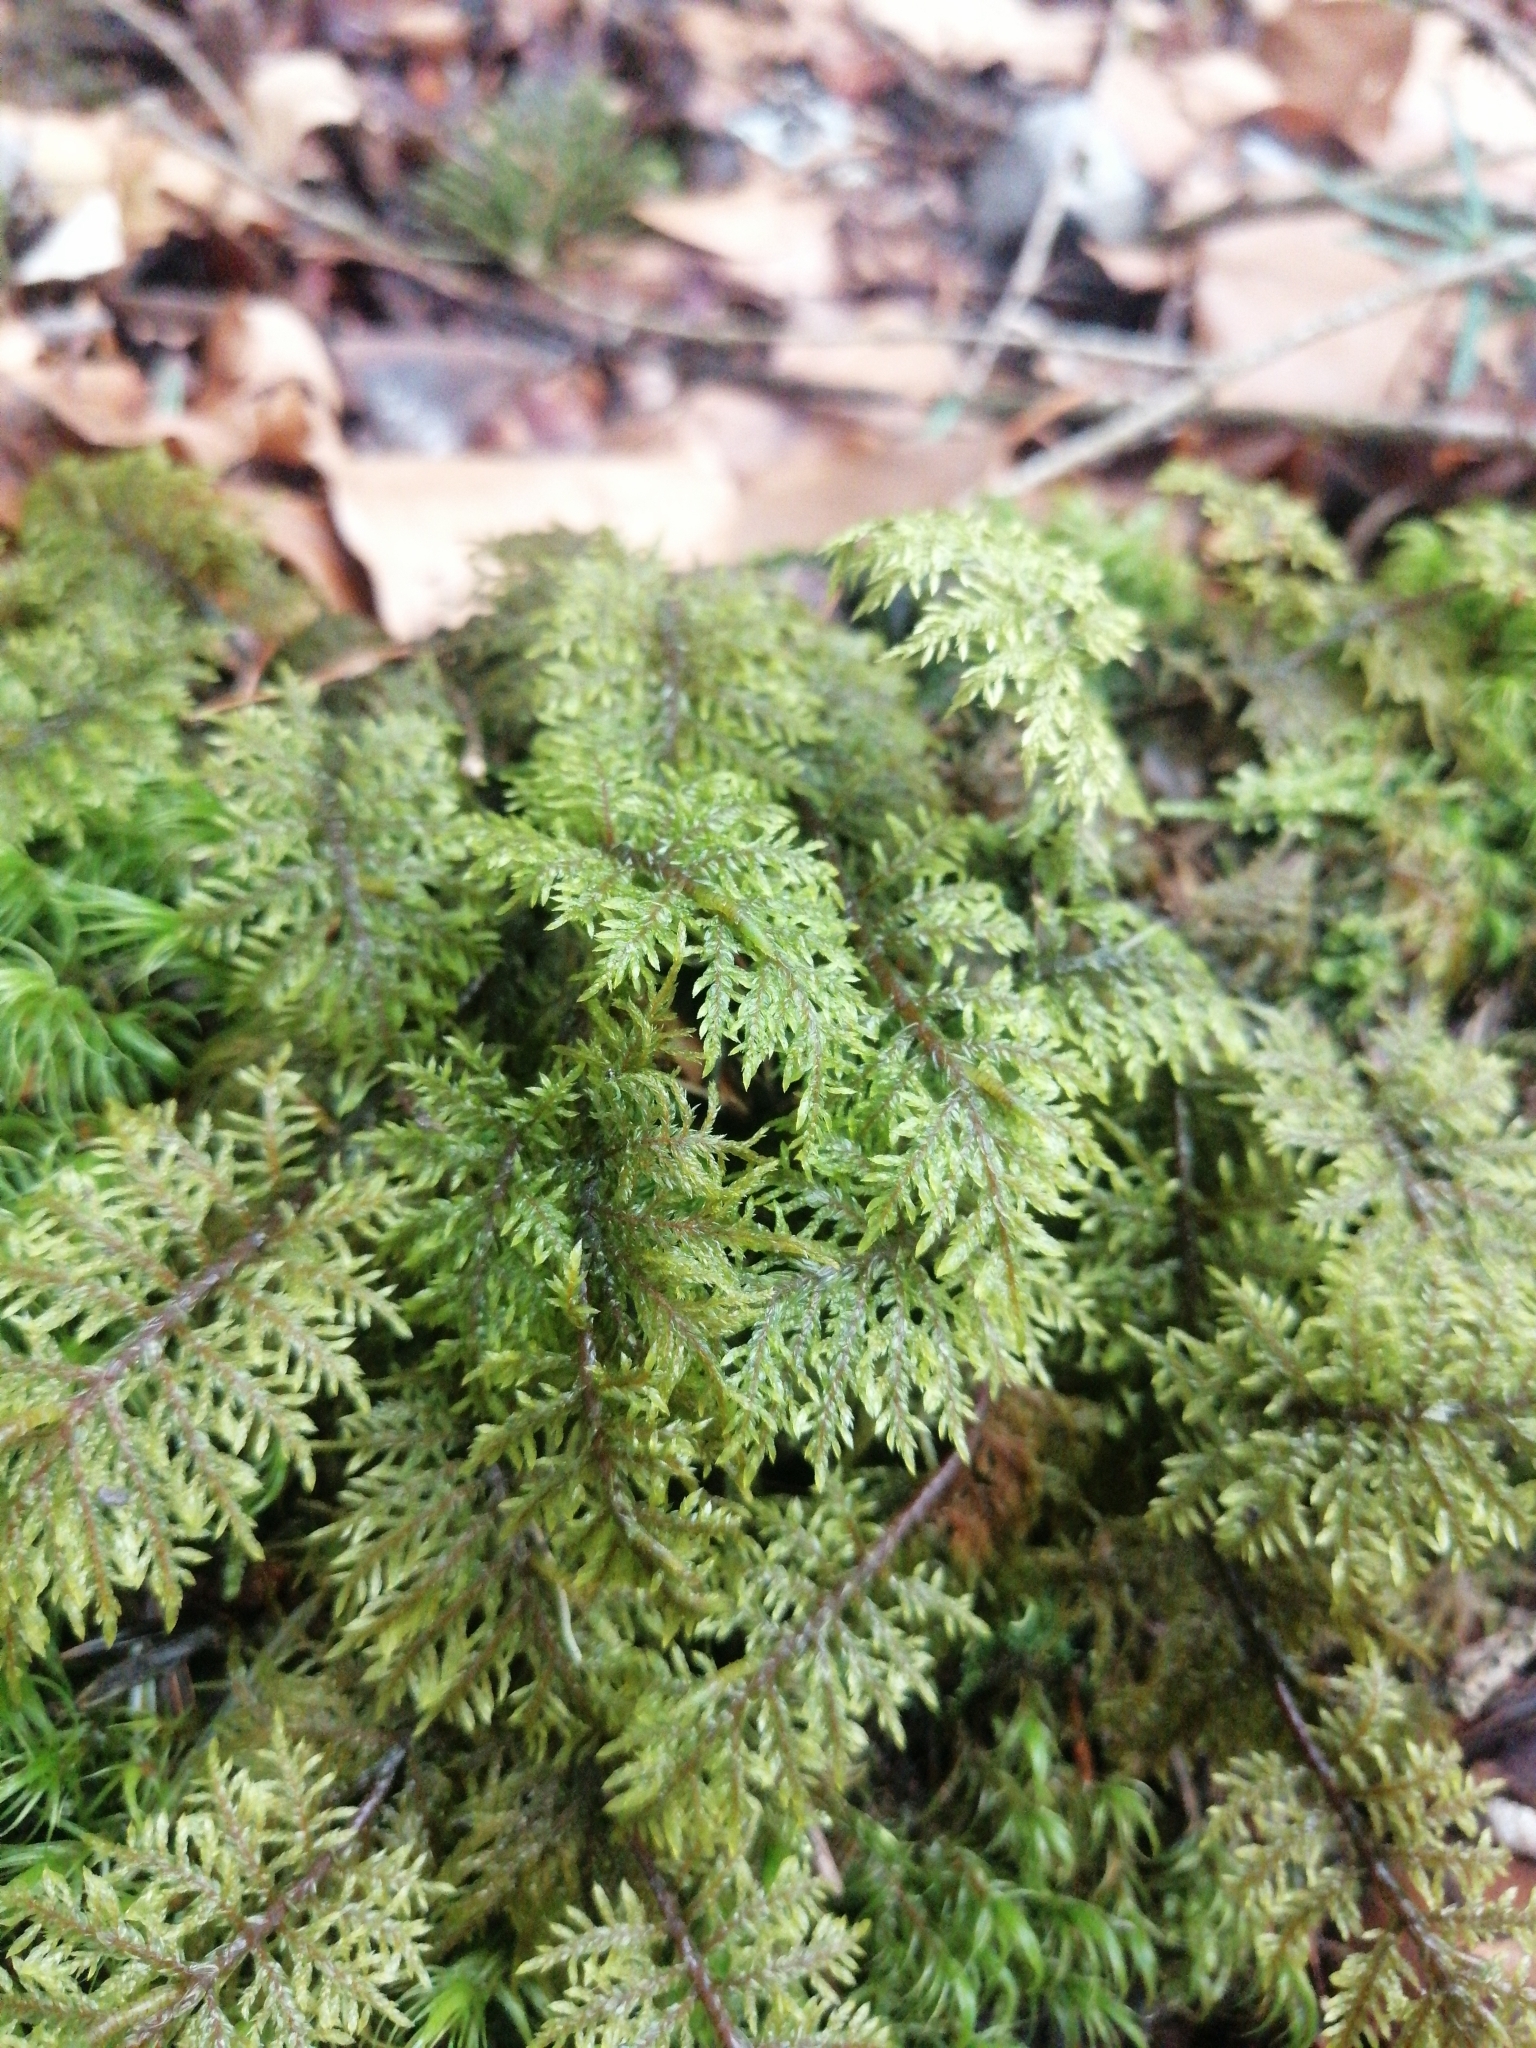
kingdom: Plantae
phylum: Bryophyta
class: Bryopsida
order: Hypnales
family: Hylocomiaceae
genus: Hylocomium
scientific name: Hylocomium splendens
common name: Stairstep moss
